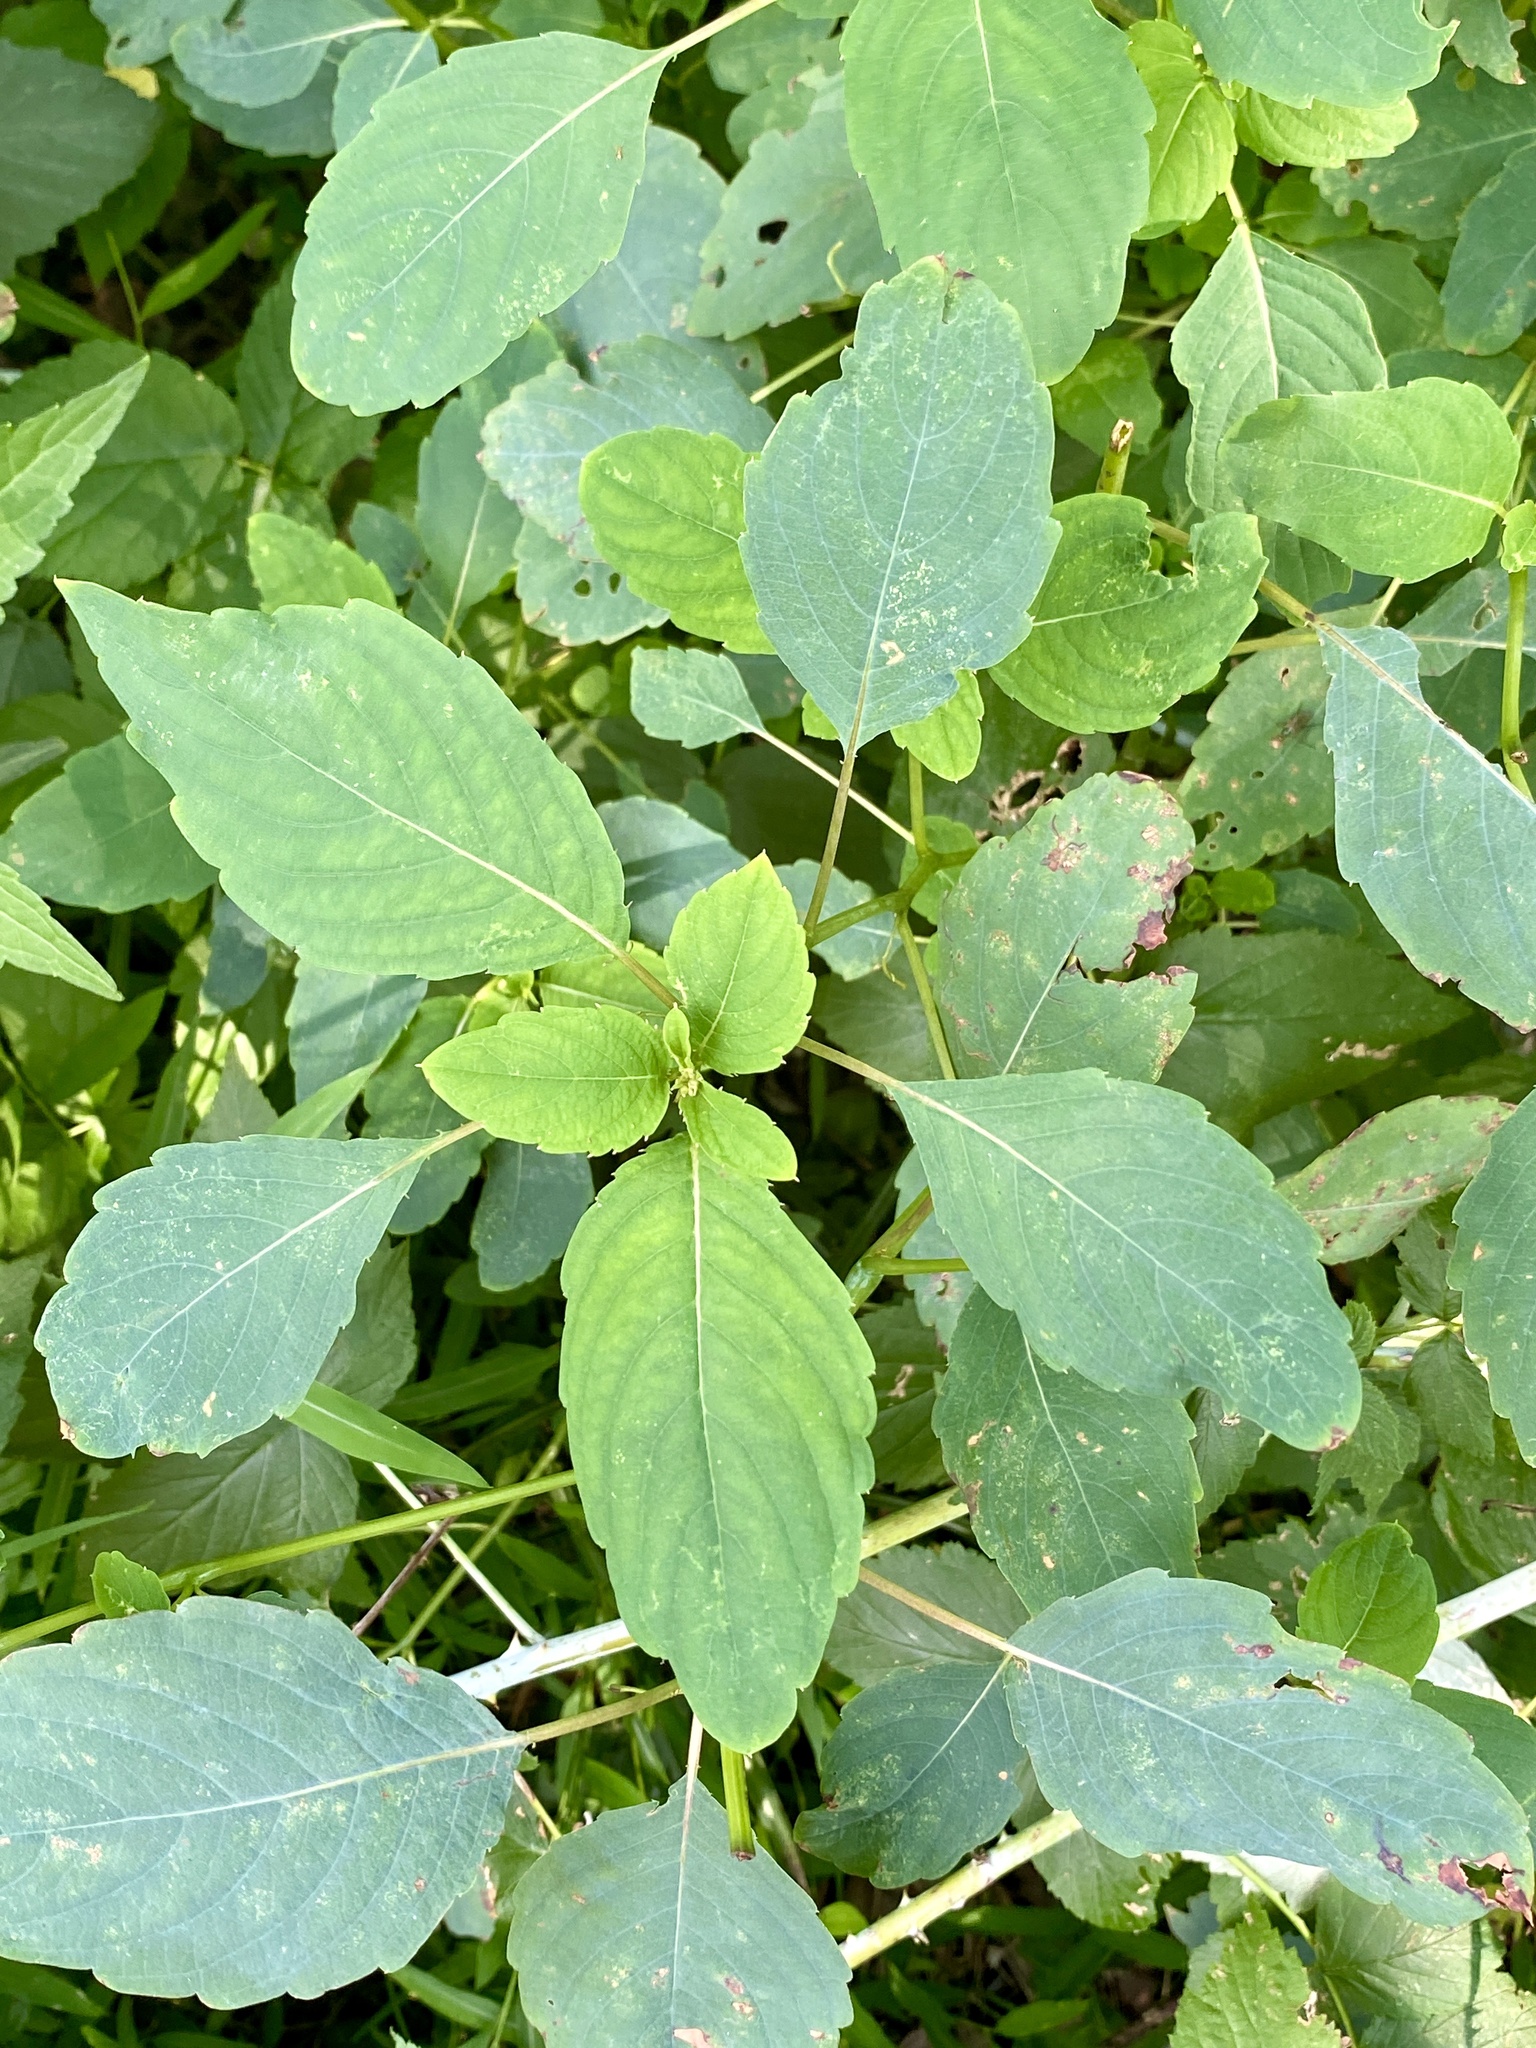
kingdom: Plantae
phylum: Tracheophyta
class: Magnoliopsida
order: Ericales
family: Balsaminaceae
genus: Impatiens
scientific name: Impatiens capensis
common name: Orange balsam
